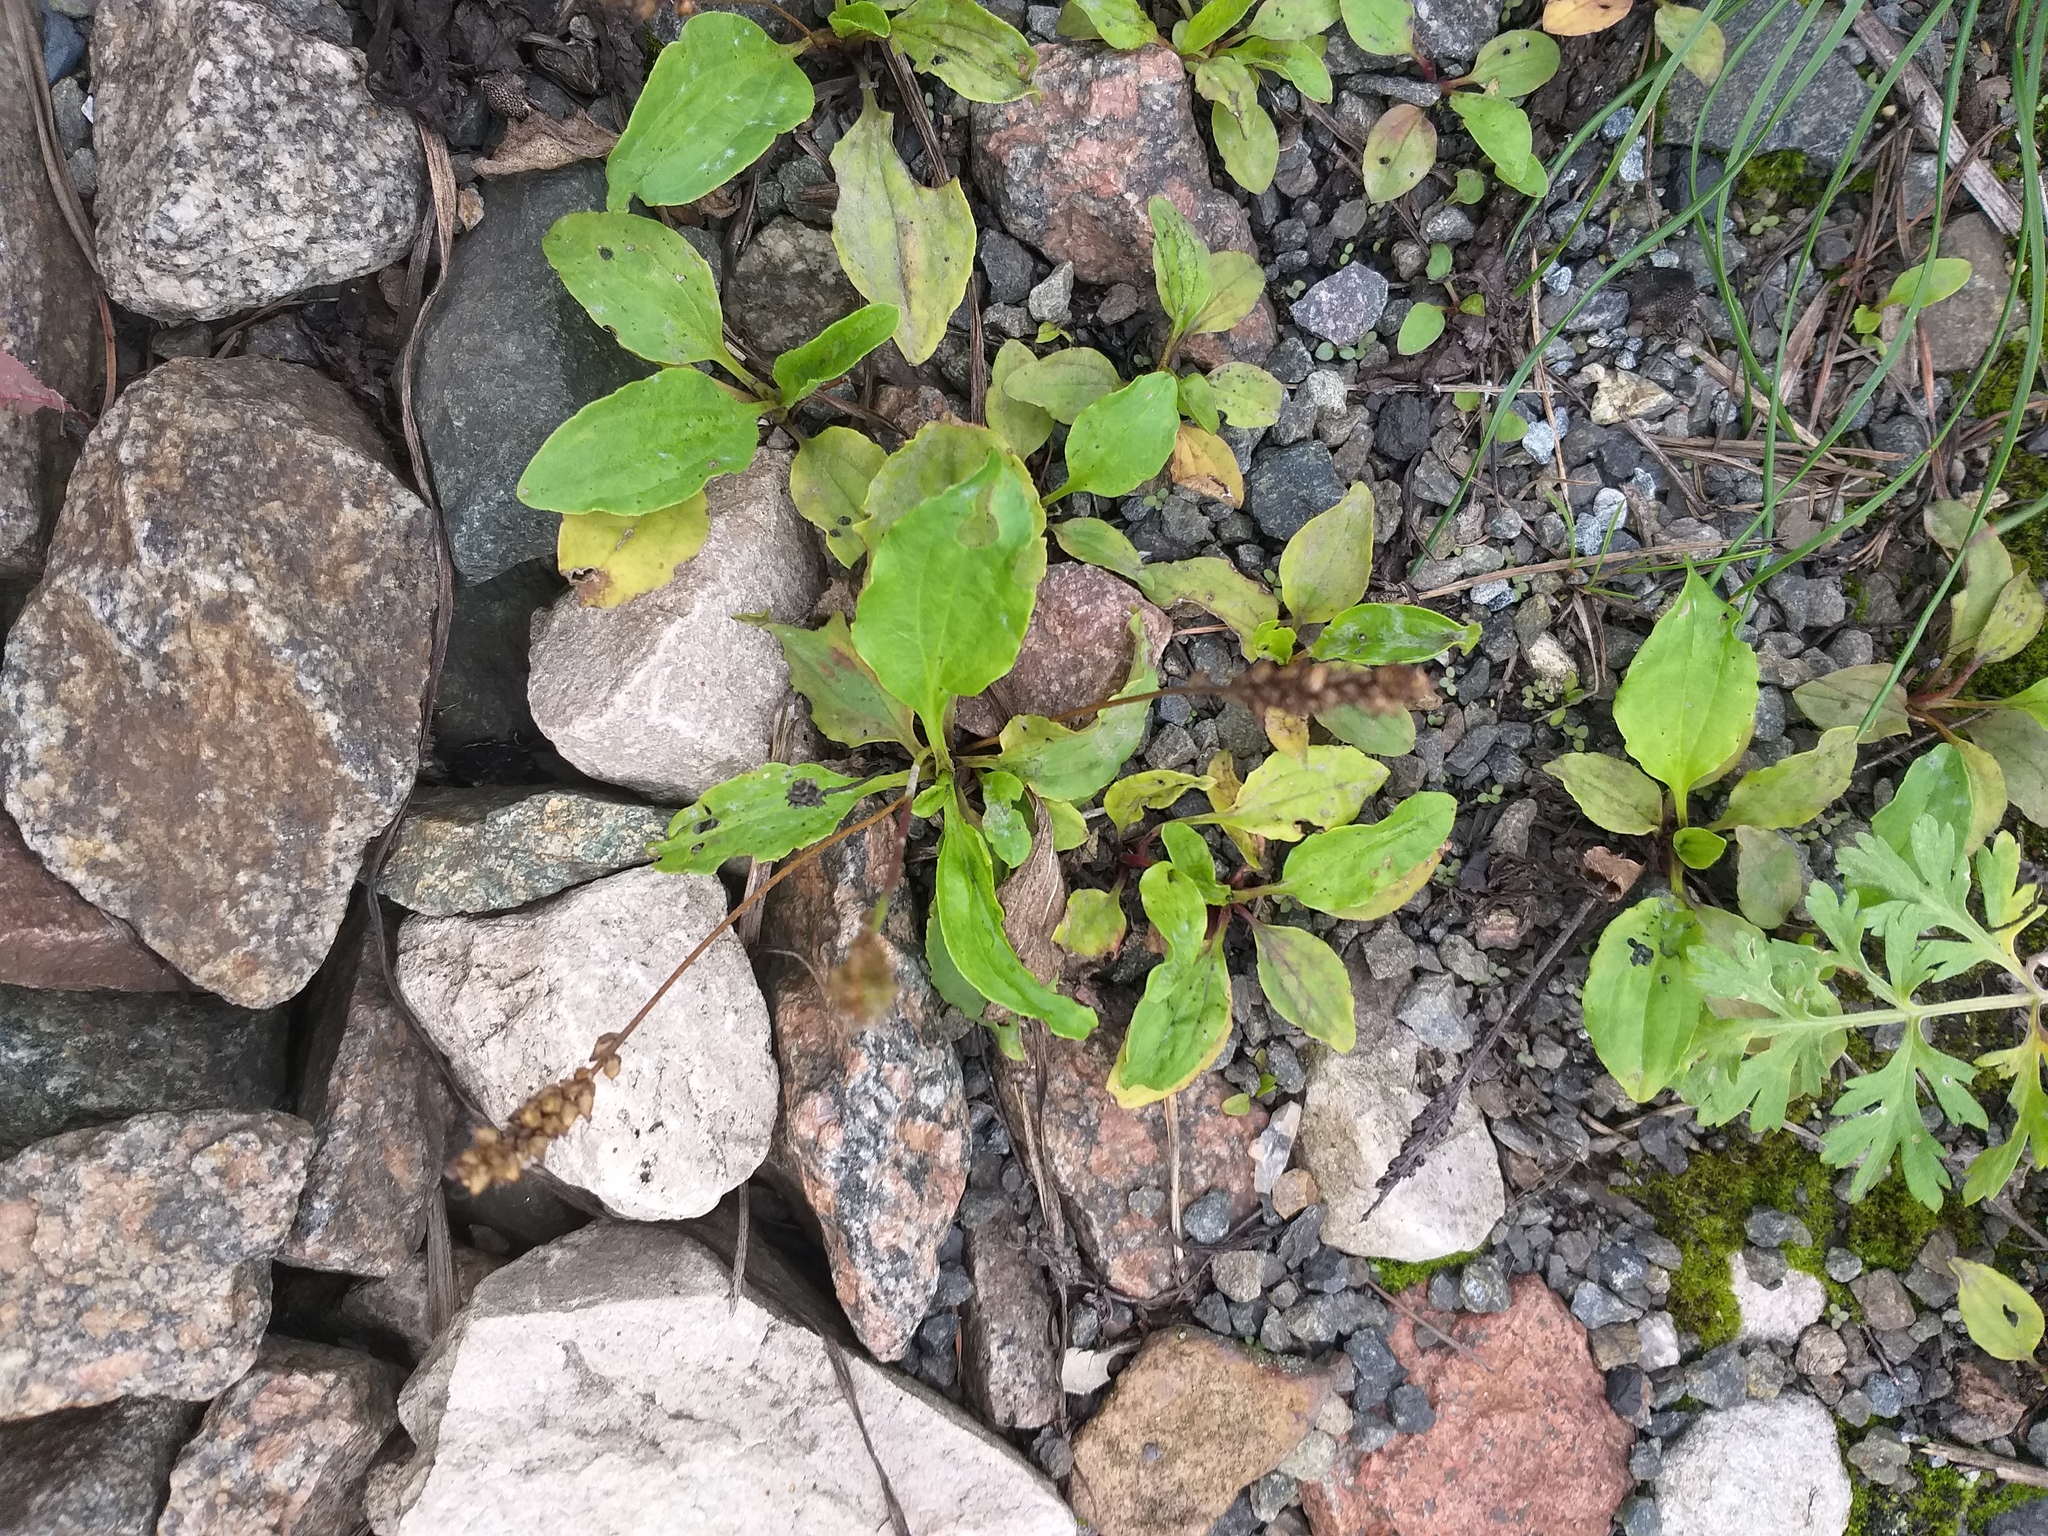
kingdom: Plantae
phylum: Tracheophyta
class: Magnoliopsida
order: Lamiales
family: Plantaginaceae
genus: Plantago
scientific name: Plantago uliginosa
